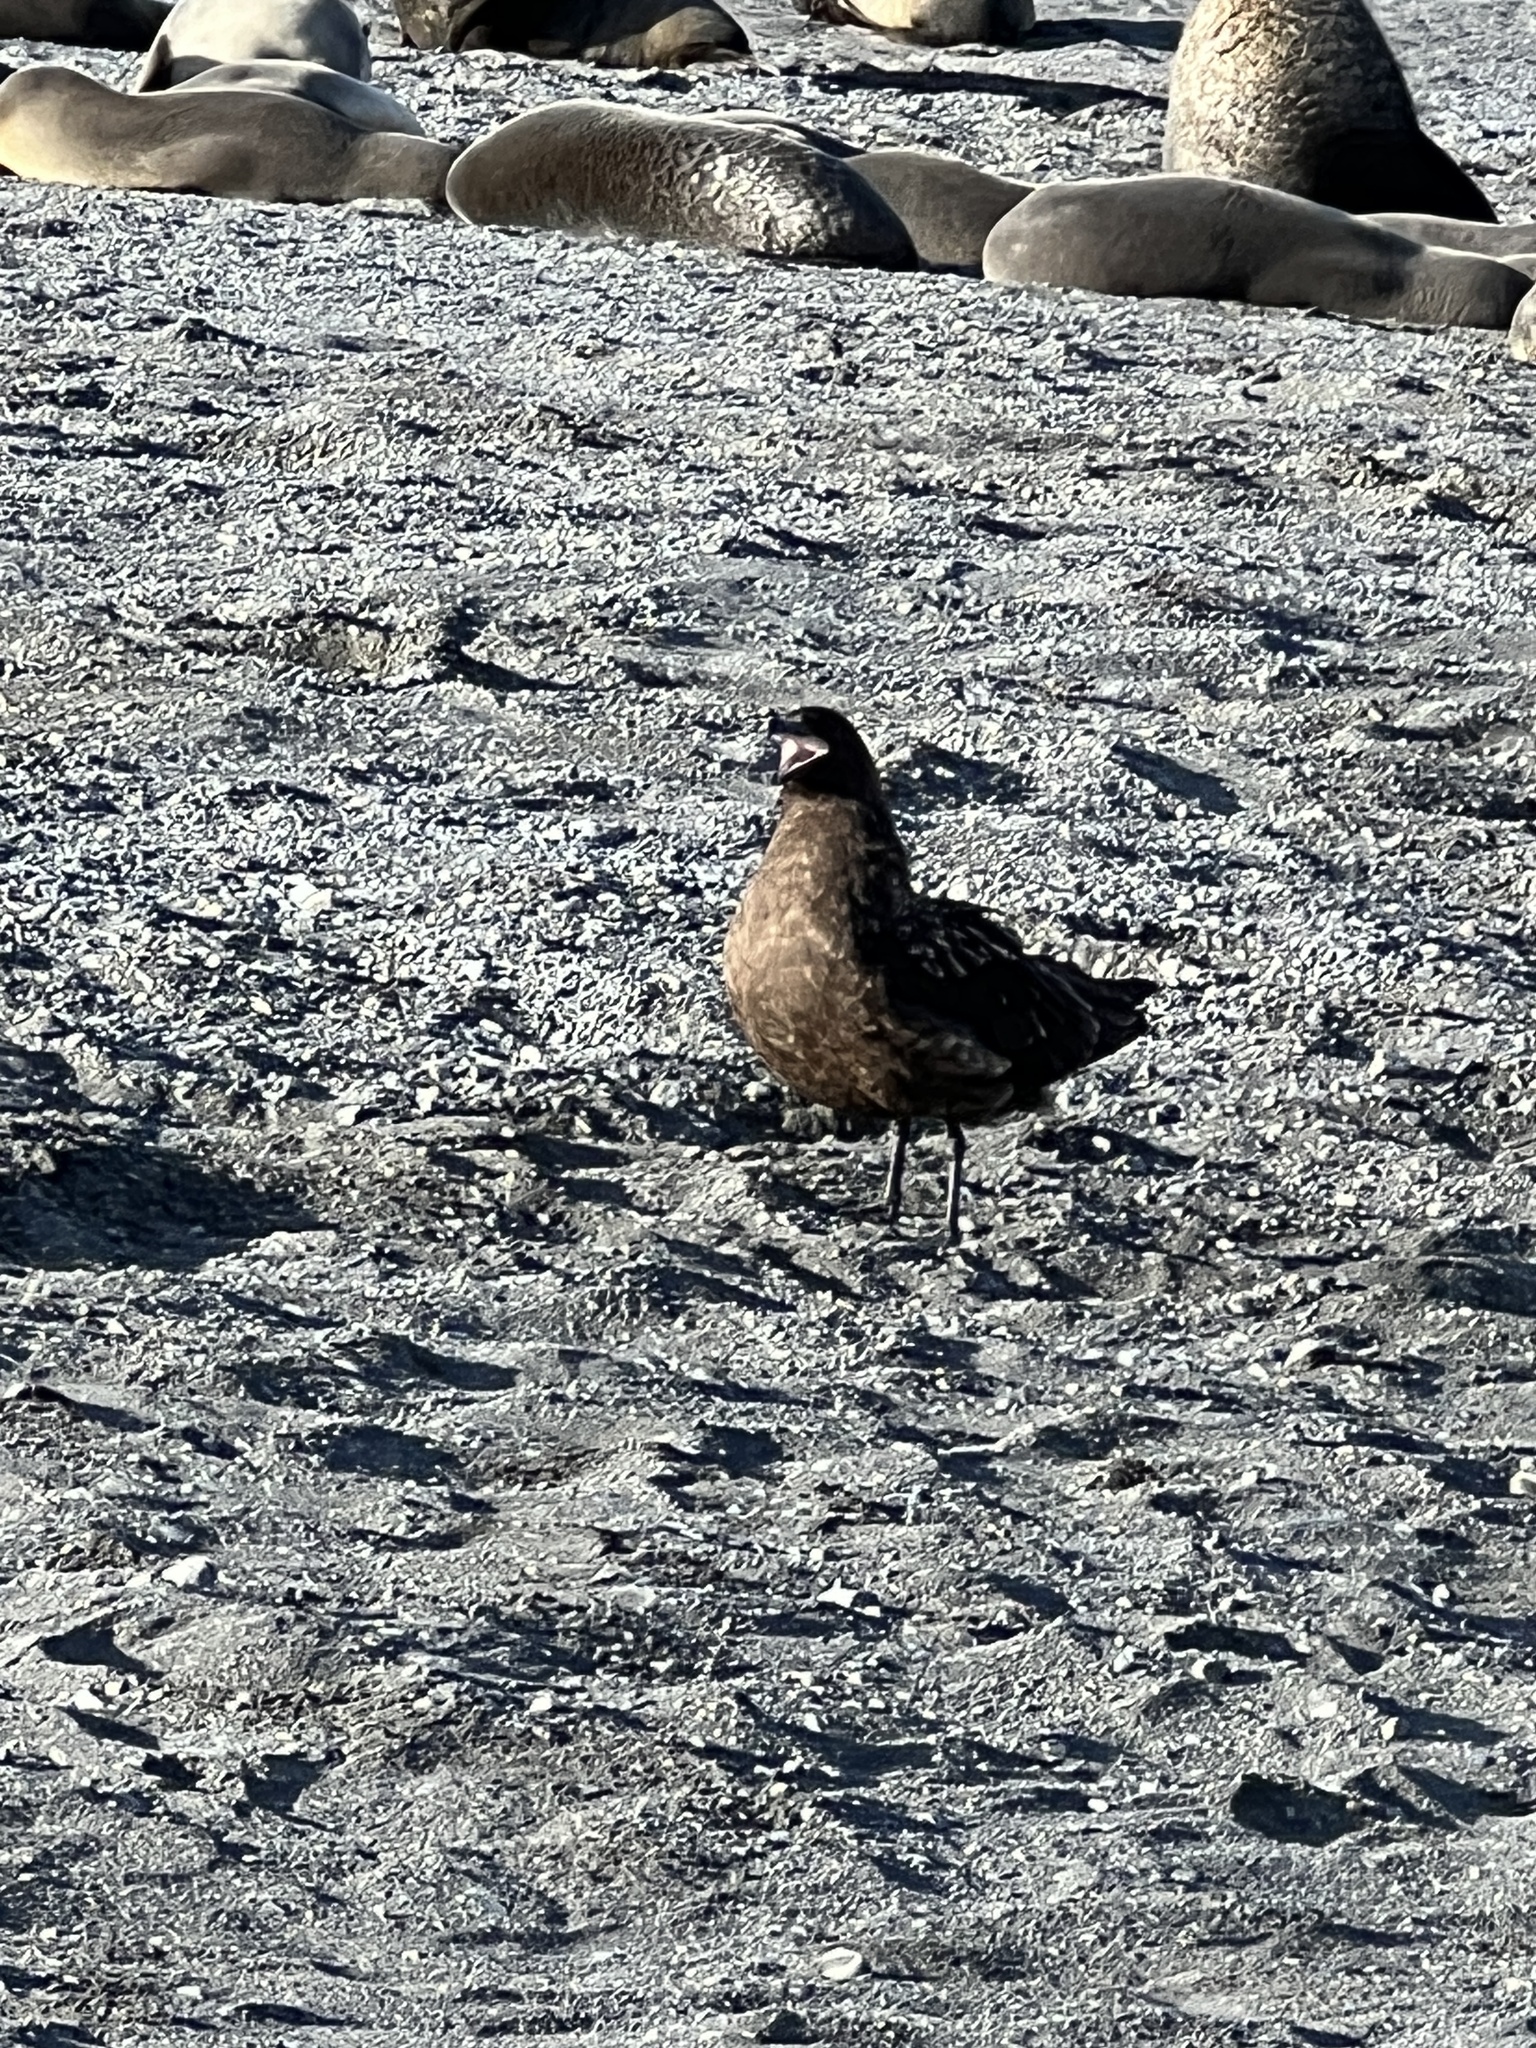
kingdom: Animalia
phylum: Chordata
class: Aves
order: Charadriiformes
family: Stercorariidae
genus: Stercorarius
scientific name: Stercorarius antarcticus
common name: Brown skua
